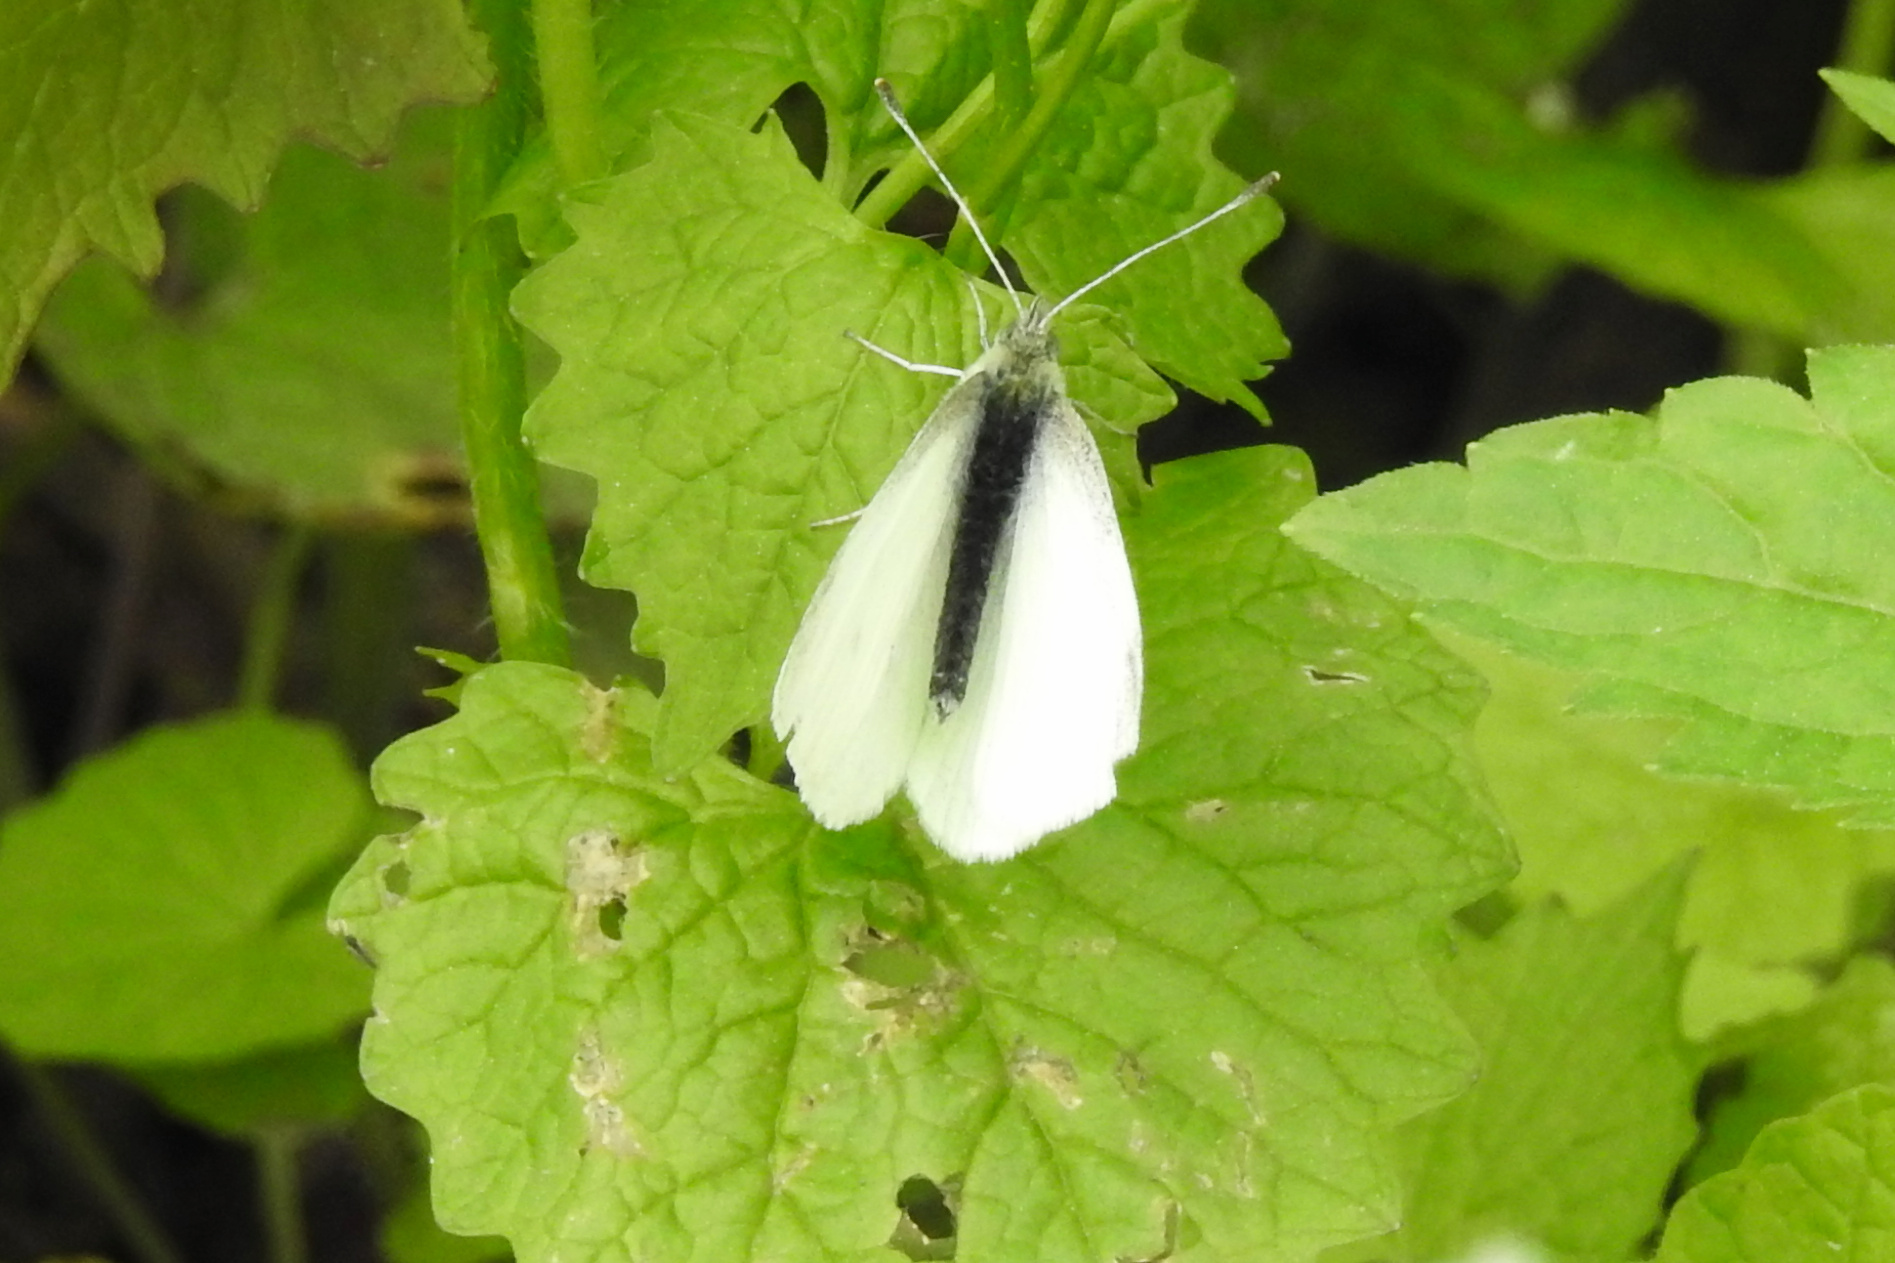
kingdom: Animalia
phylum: Arthropoda
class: Insecta
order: Lepidoptera
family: Pieridae
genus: Pieris
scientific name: Pieris rapae
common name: Small white
